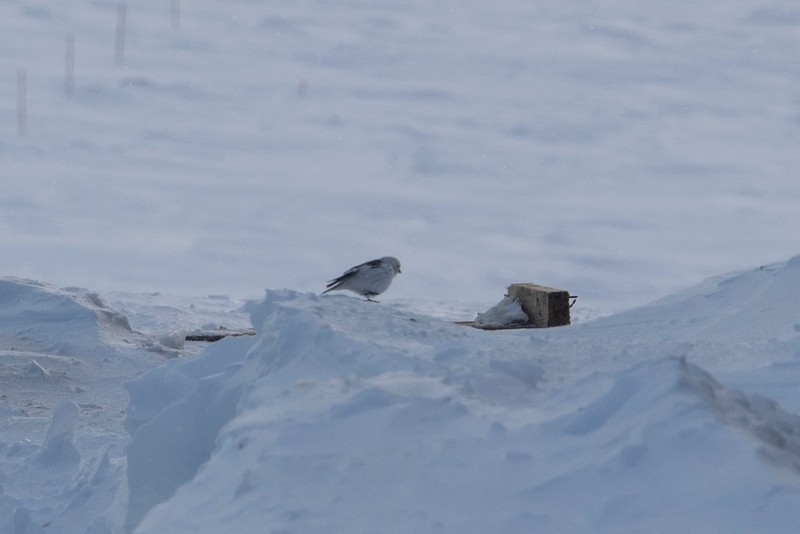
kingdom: Animalia
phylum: Chordata
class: Aves
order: Passeriformes
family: Calcariidae
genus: Plectrophenax
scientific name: Plectrophenax nivalis
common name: Snow bunting
